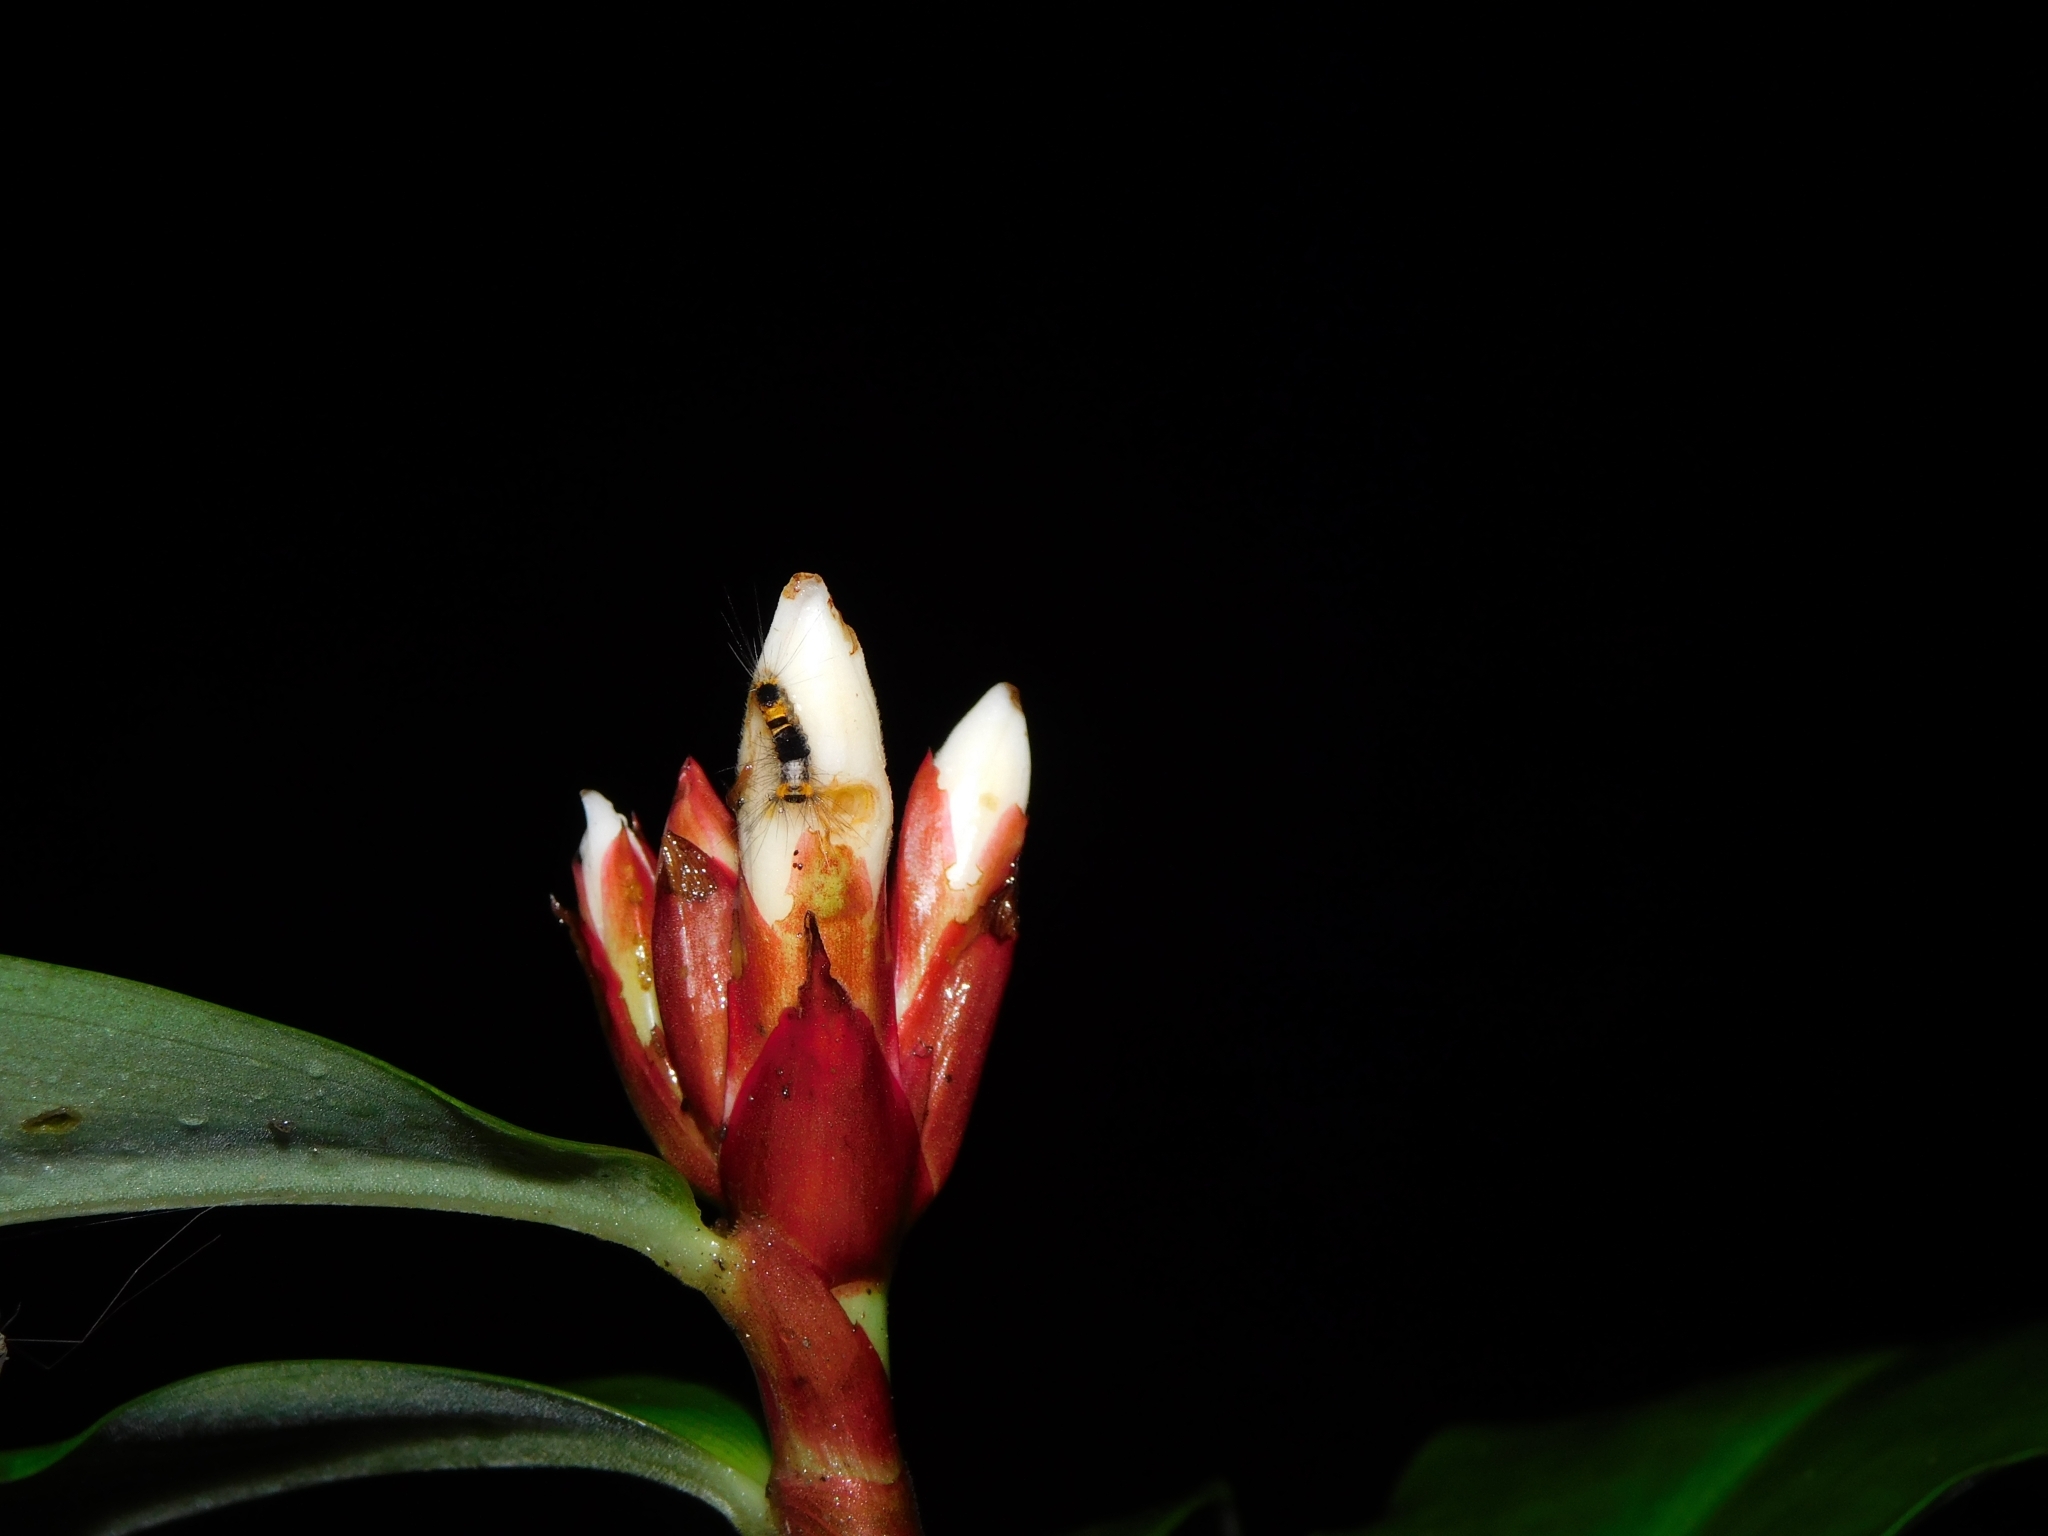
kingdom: Plantae
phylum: Tracheophyta
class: Liliopsida
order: Zingiberales
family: Costaceae
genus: Hellenia
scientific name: Hellenia speciosa
